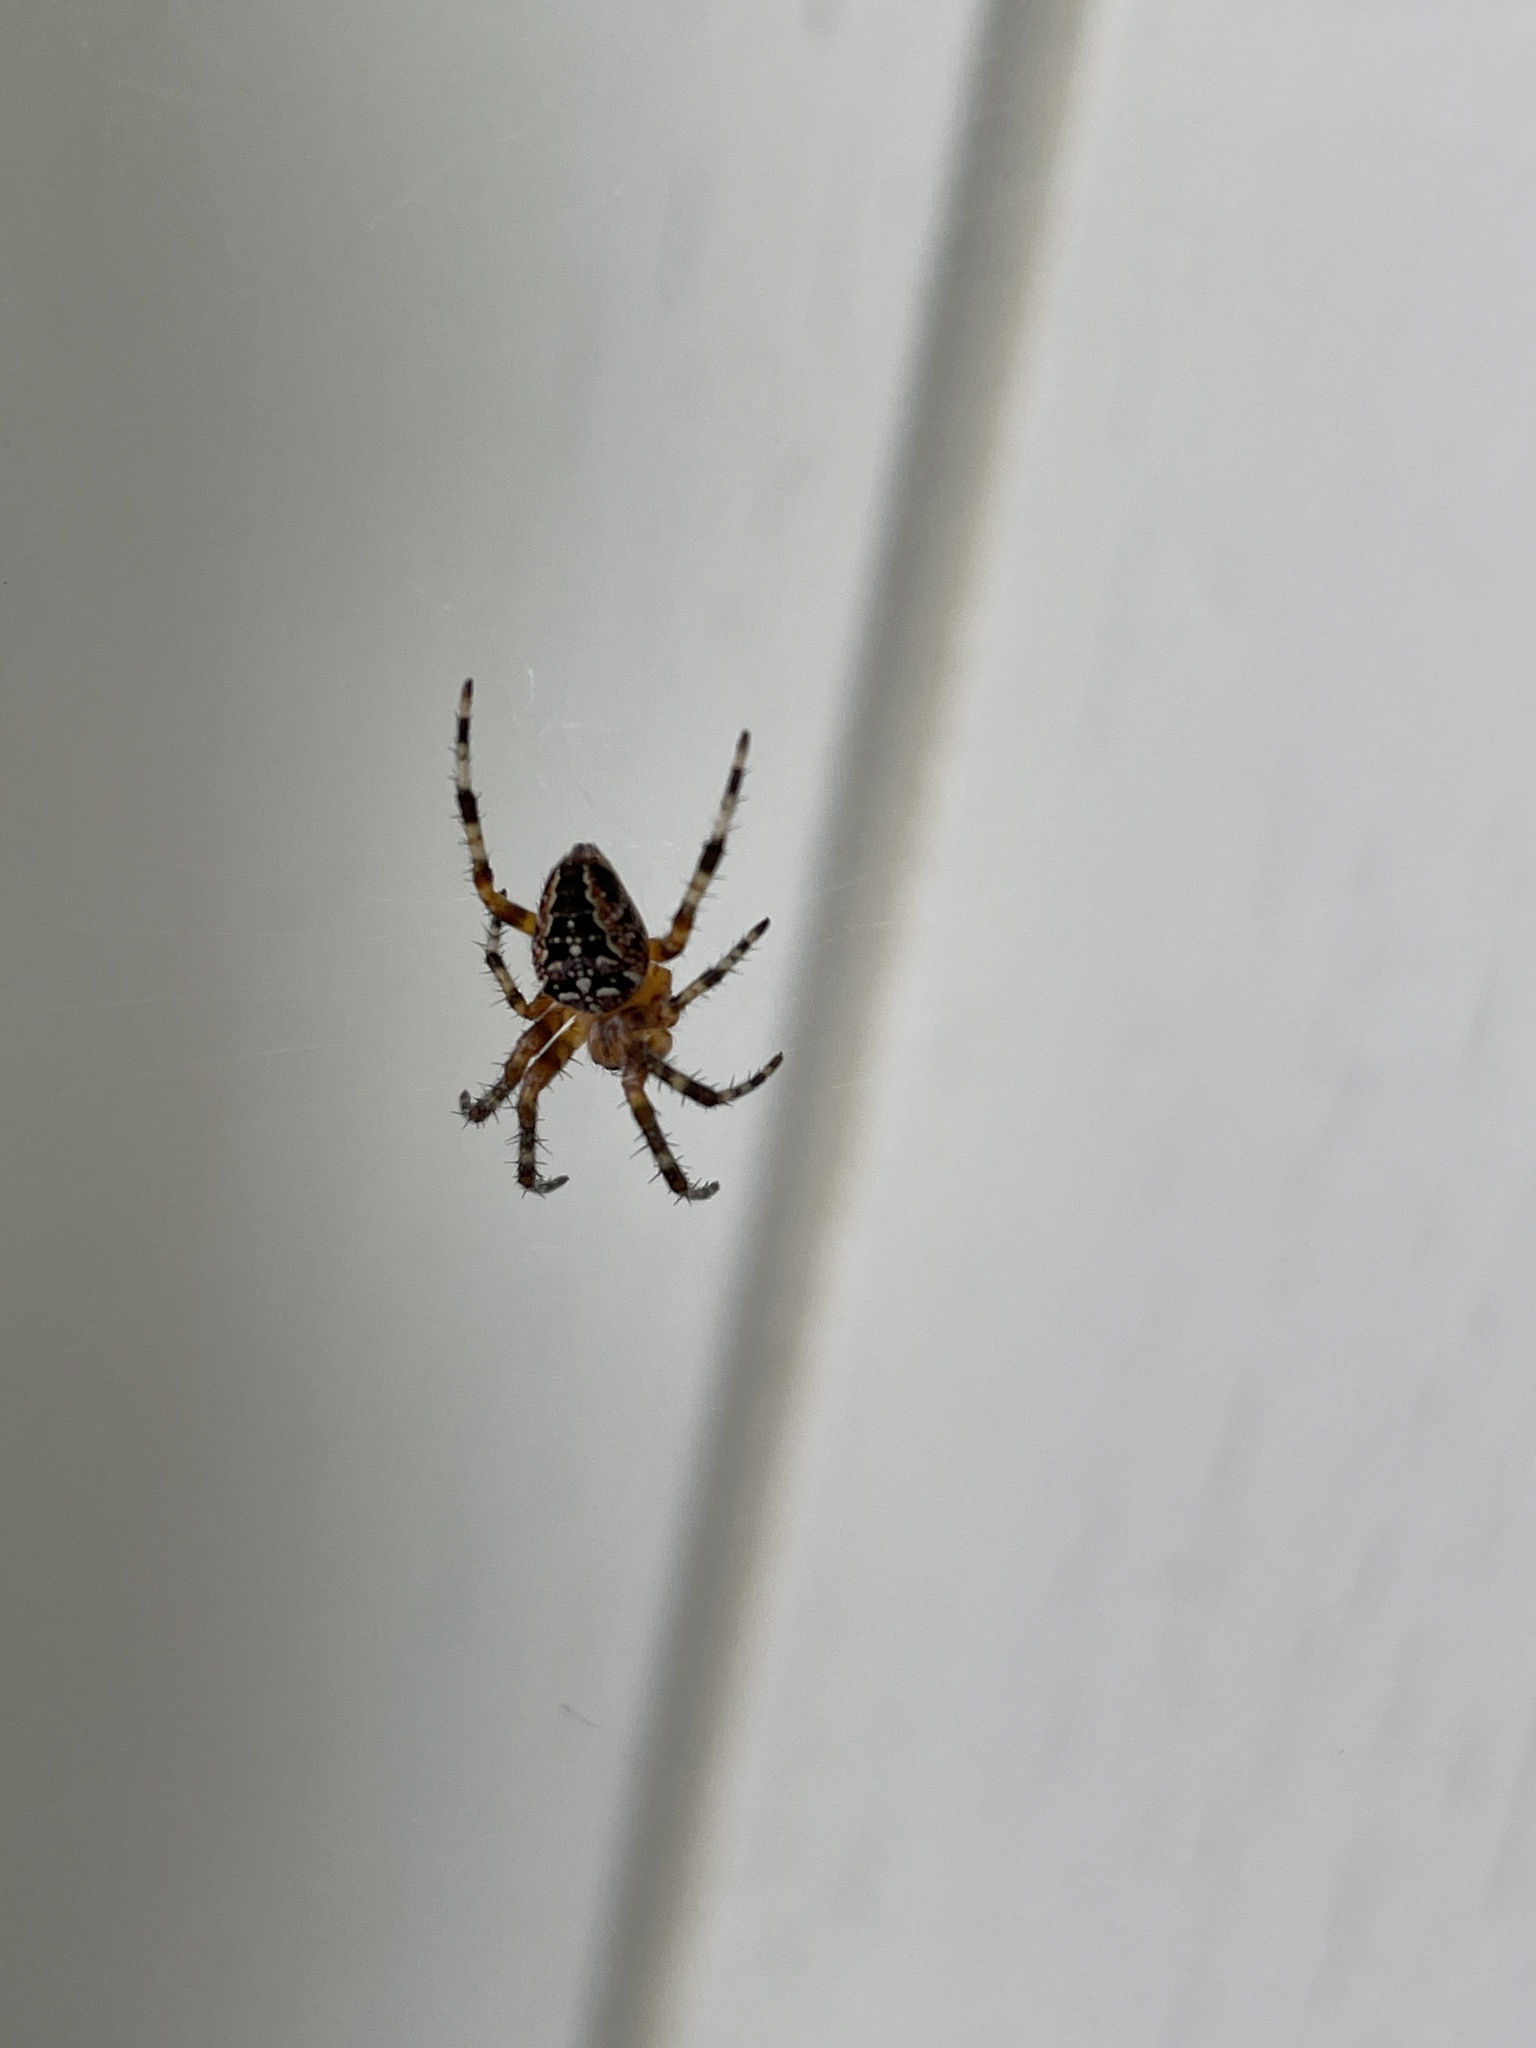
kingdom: Animalia
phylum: Arthropoda
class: Arachnida
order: Araneae
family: Araneidae
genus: Araneus
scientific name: Araneus diadematus
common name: Cross orbweaver
